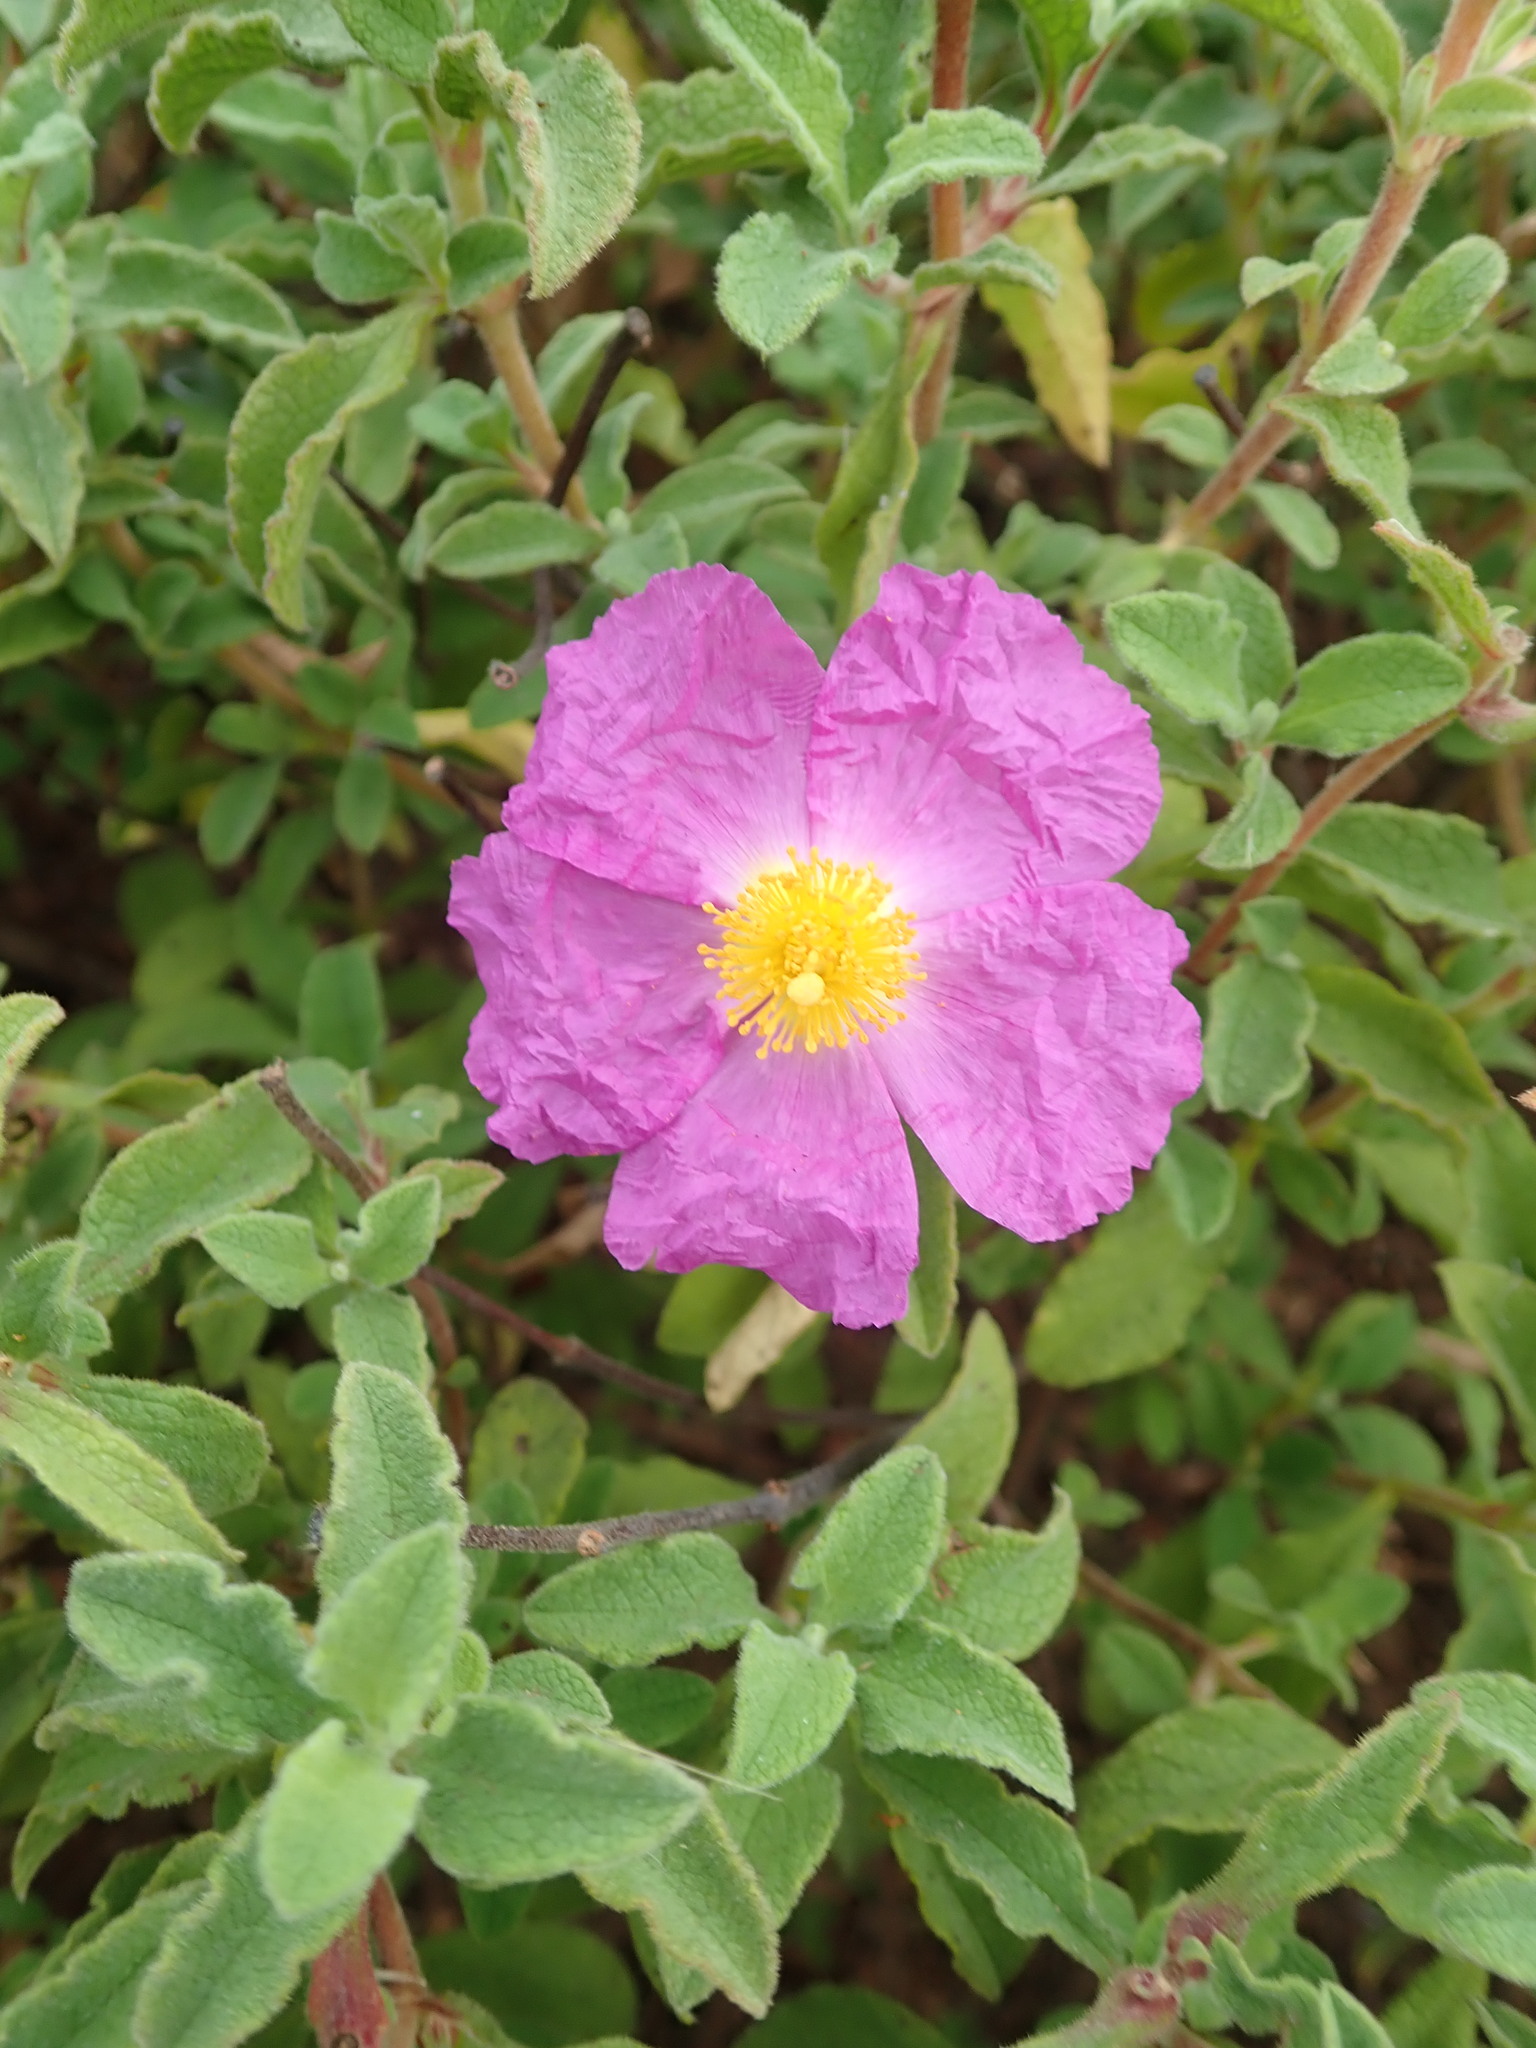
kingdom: Plantae
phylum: Tracheophyta
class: Magnoliopsida
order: Malvales
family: Cistaceae
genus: Cistus
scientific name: Cistus creticus
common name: Cretan rockrose
